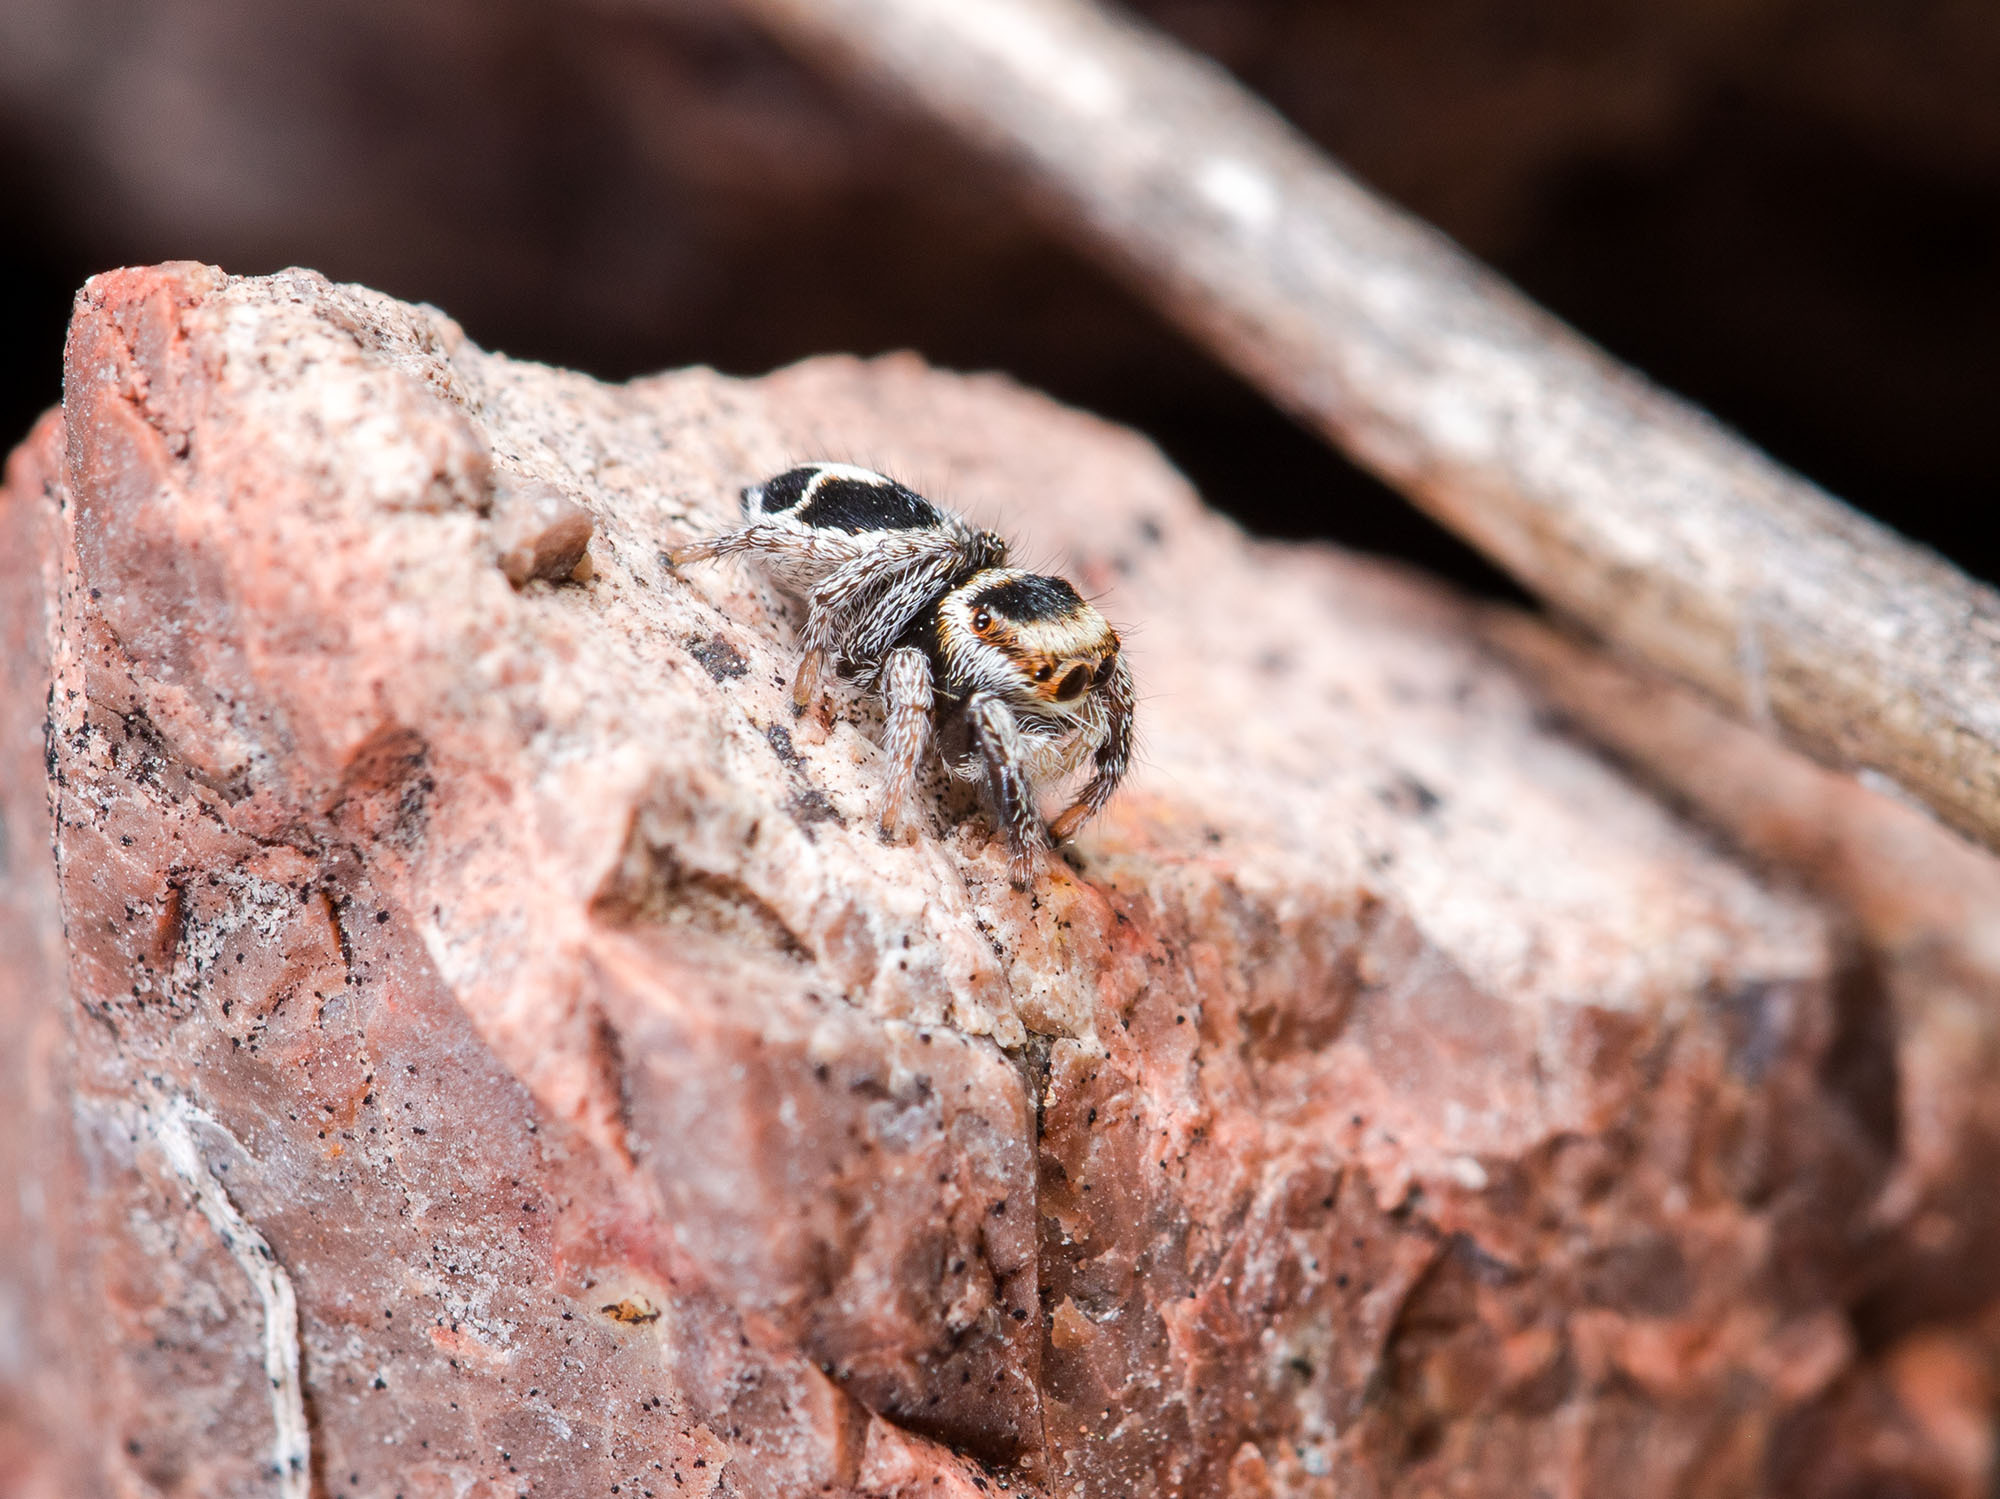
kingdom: Animalia
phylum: Arthropoda
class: Arachnida
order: Araneae
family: Salticidae
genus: Pellenes
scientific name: Pellenes geniculatus
